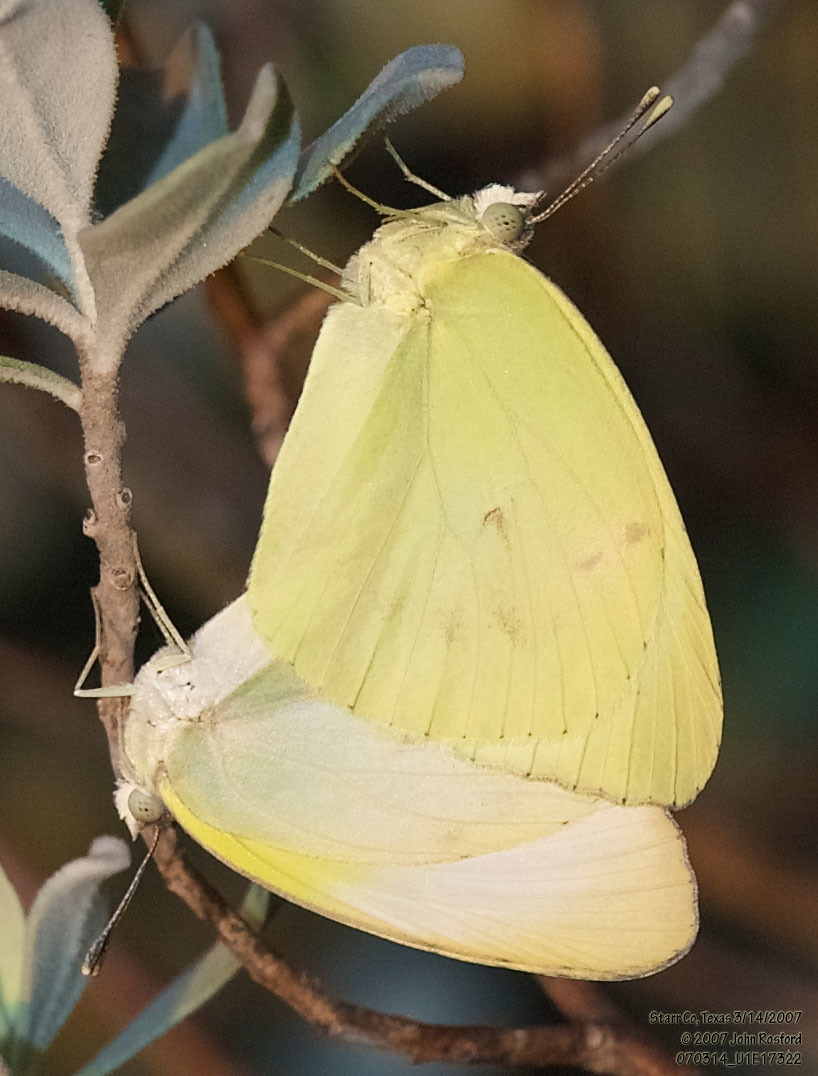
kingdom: Animalia
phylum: Arthropoda
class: Insecta
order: Lepidoptera
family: Pieridae
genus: Kricogonia
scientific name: Kricogonia lyside
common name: Guayacan sulphur,
